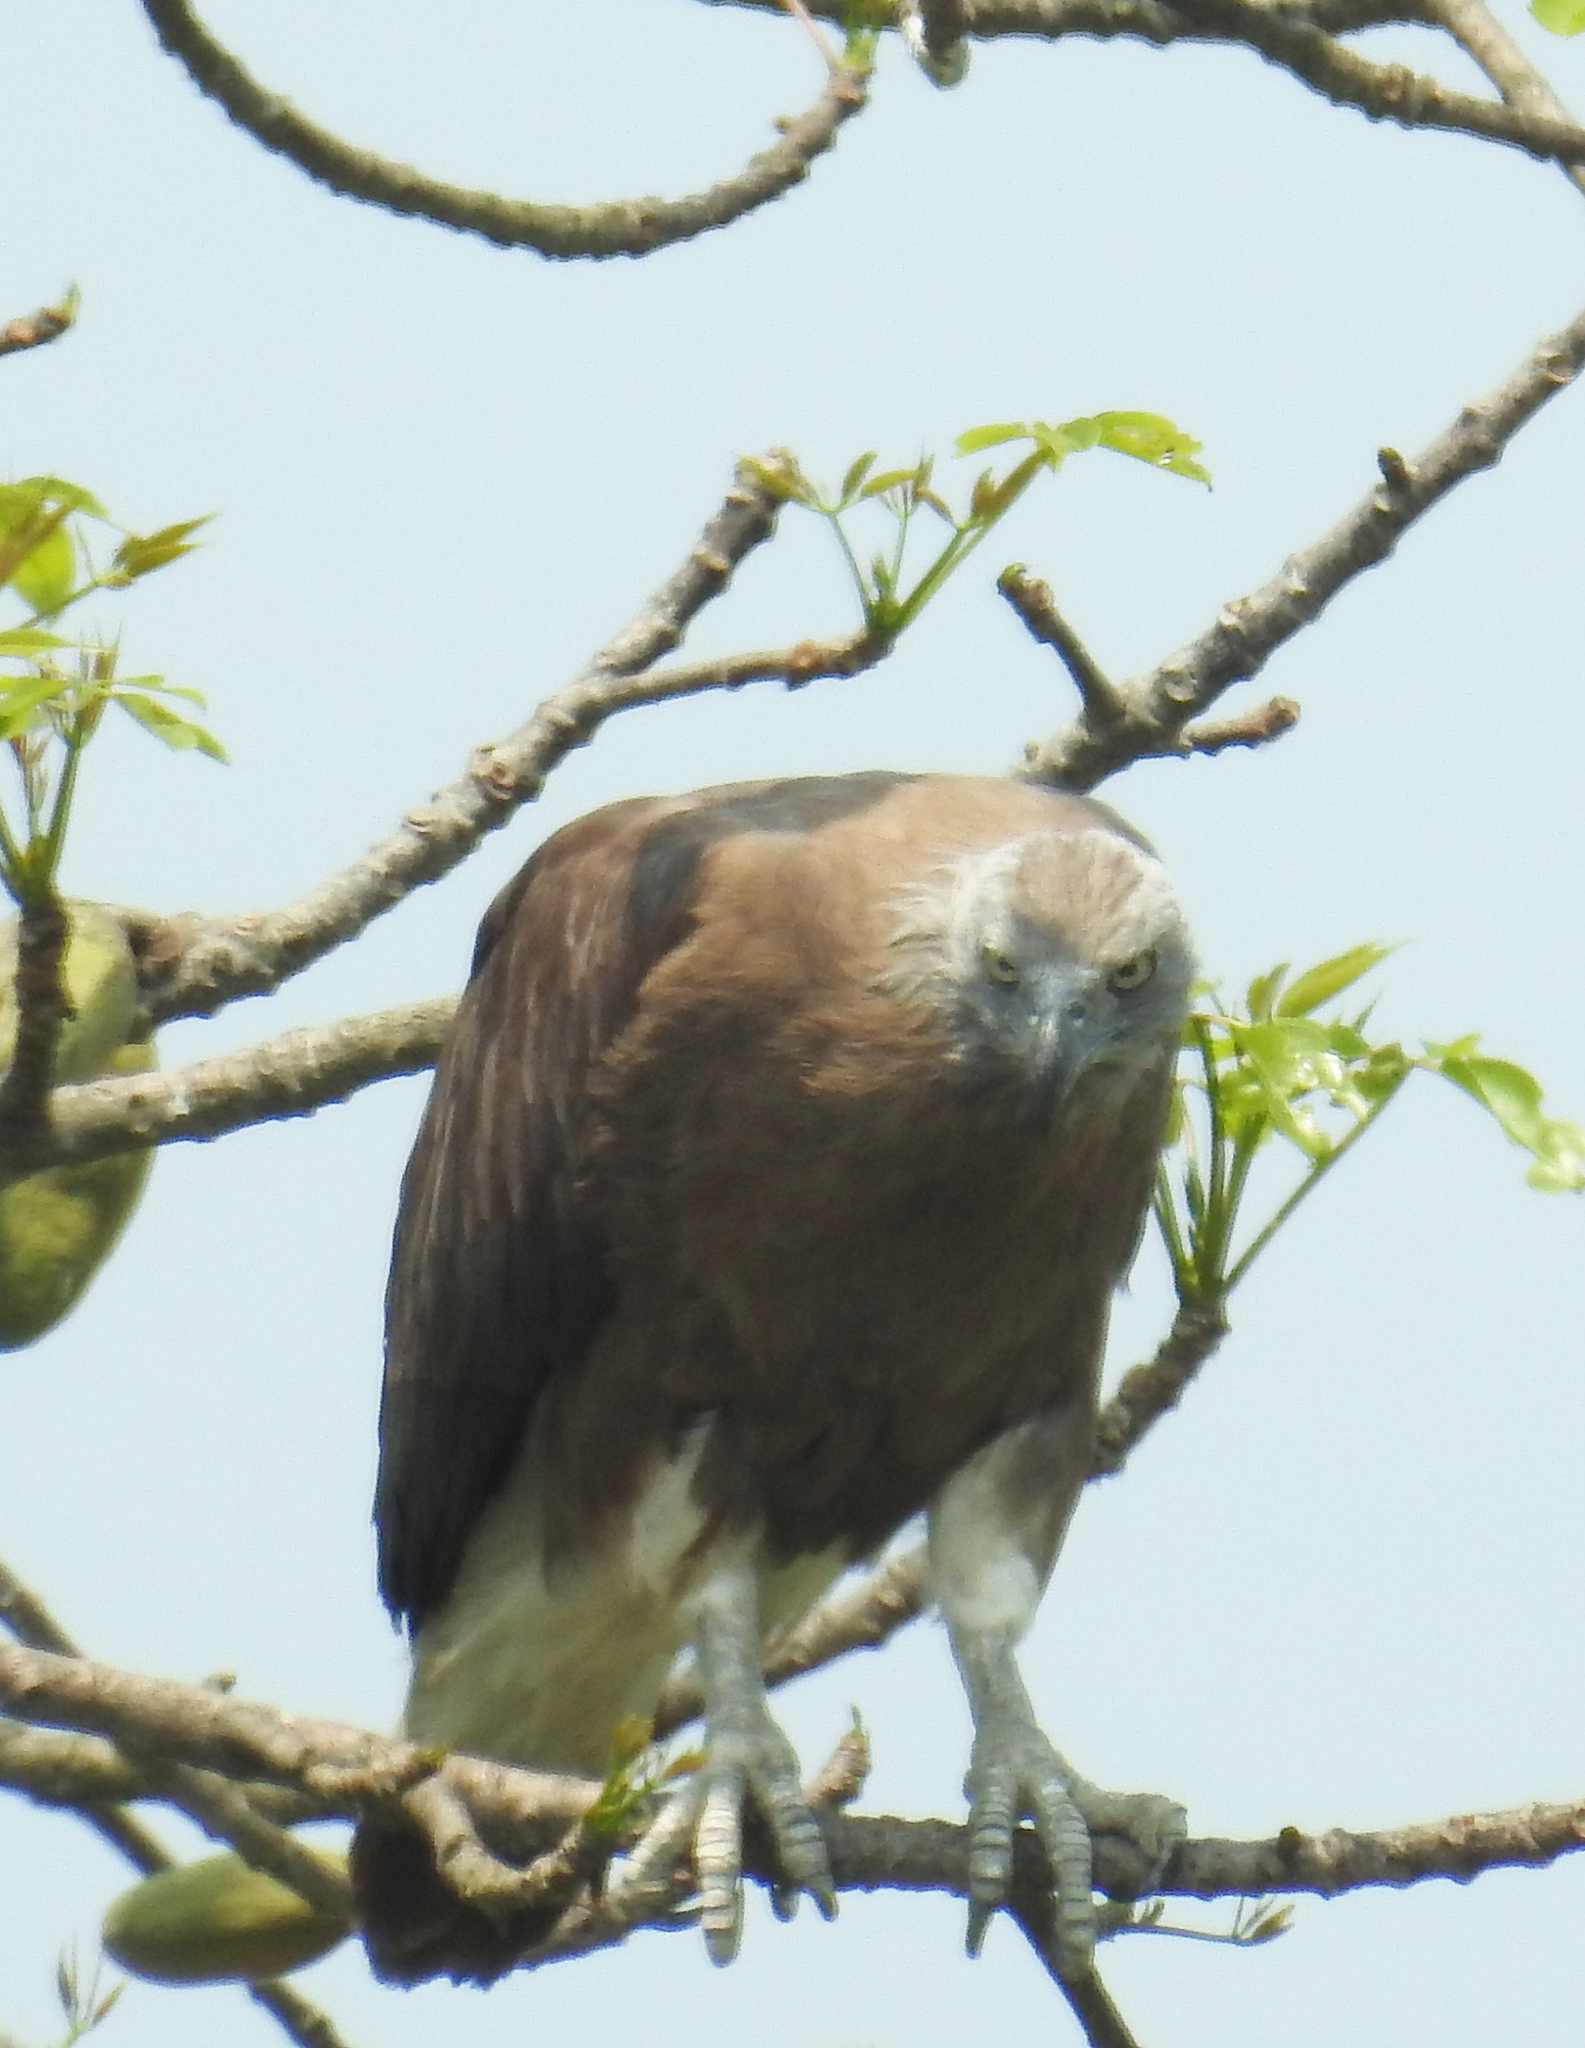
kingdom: Animalia
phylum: Chordata
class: Aves
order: Accipitriformes
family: Accipitridae
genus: Icthyophaga
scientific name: Icthyophaga ichthyaetus
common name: Grey-headed fish eagle
